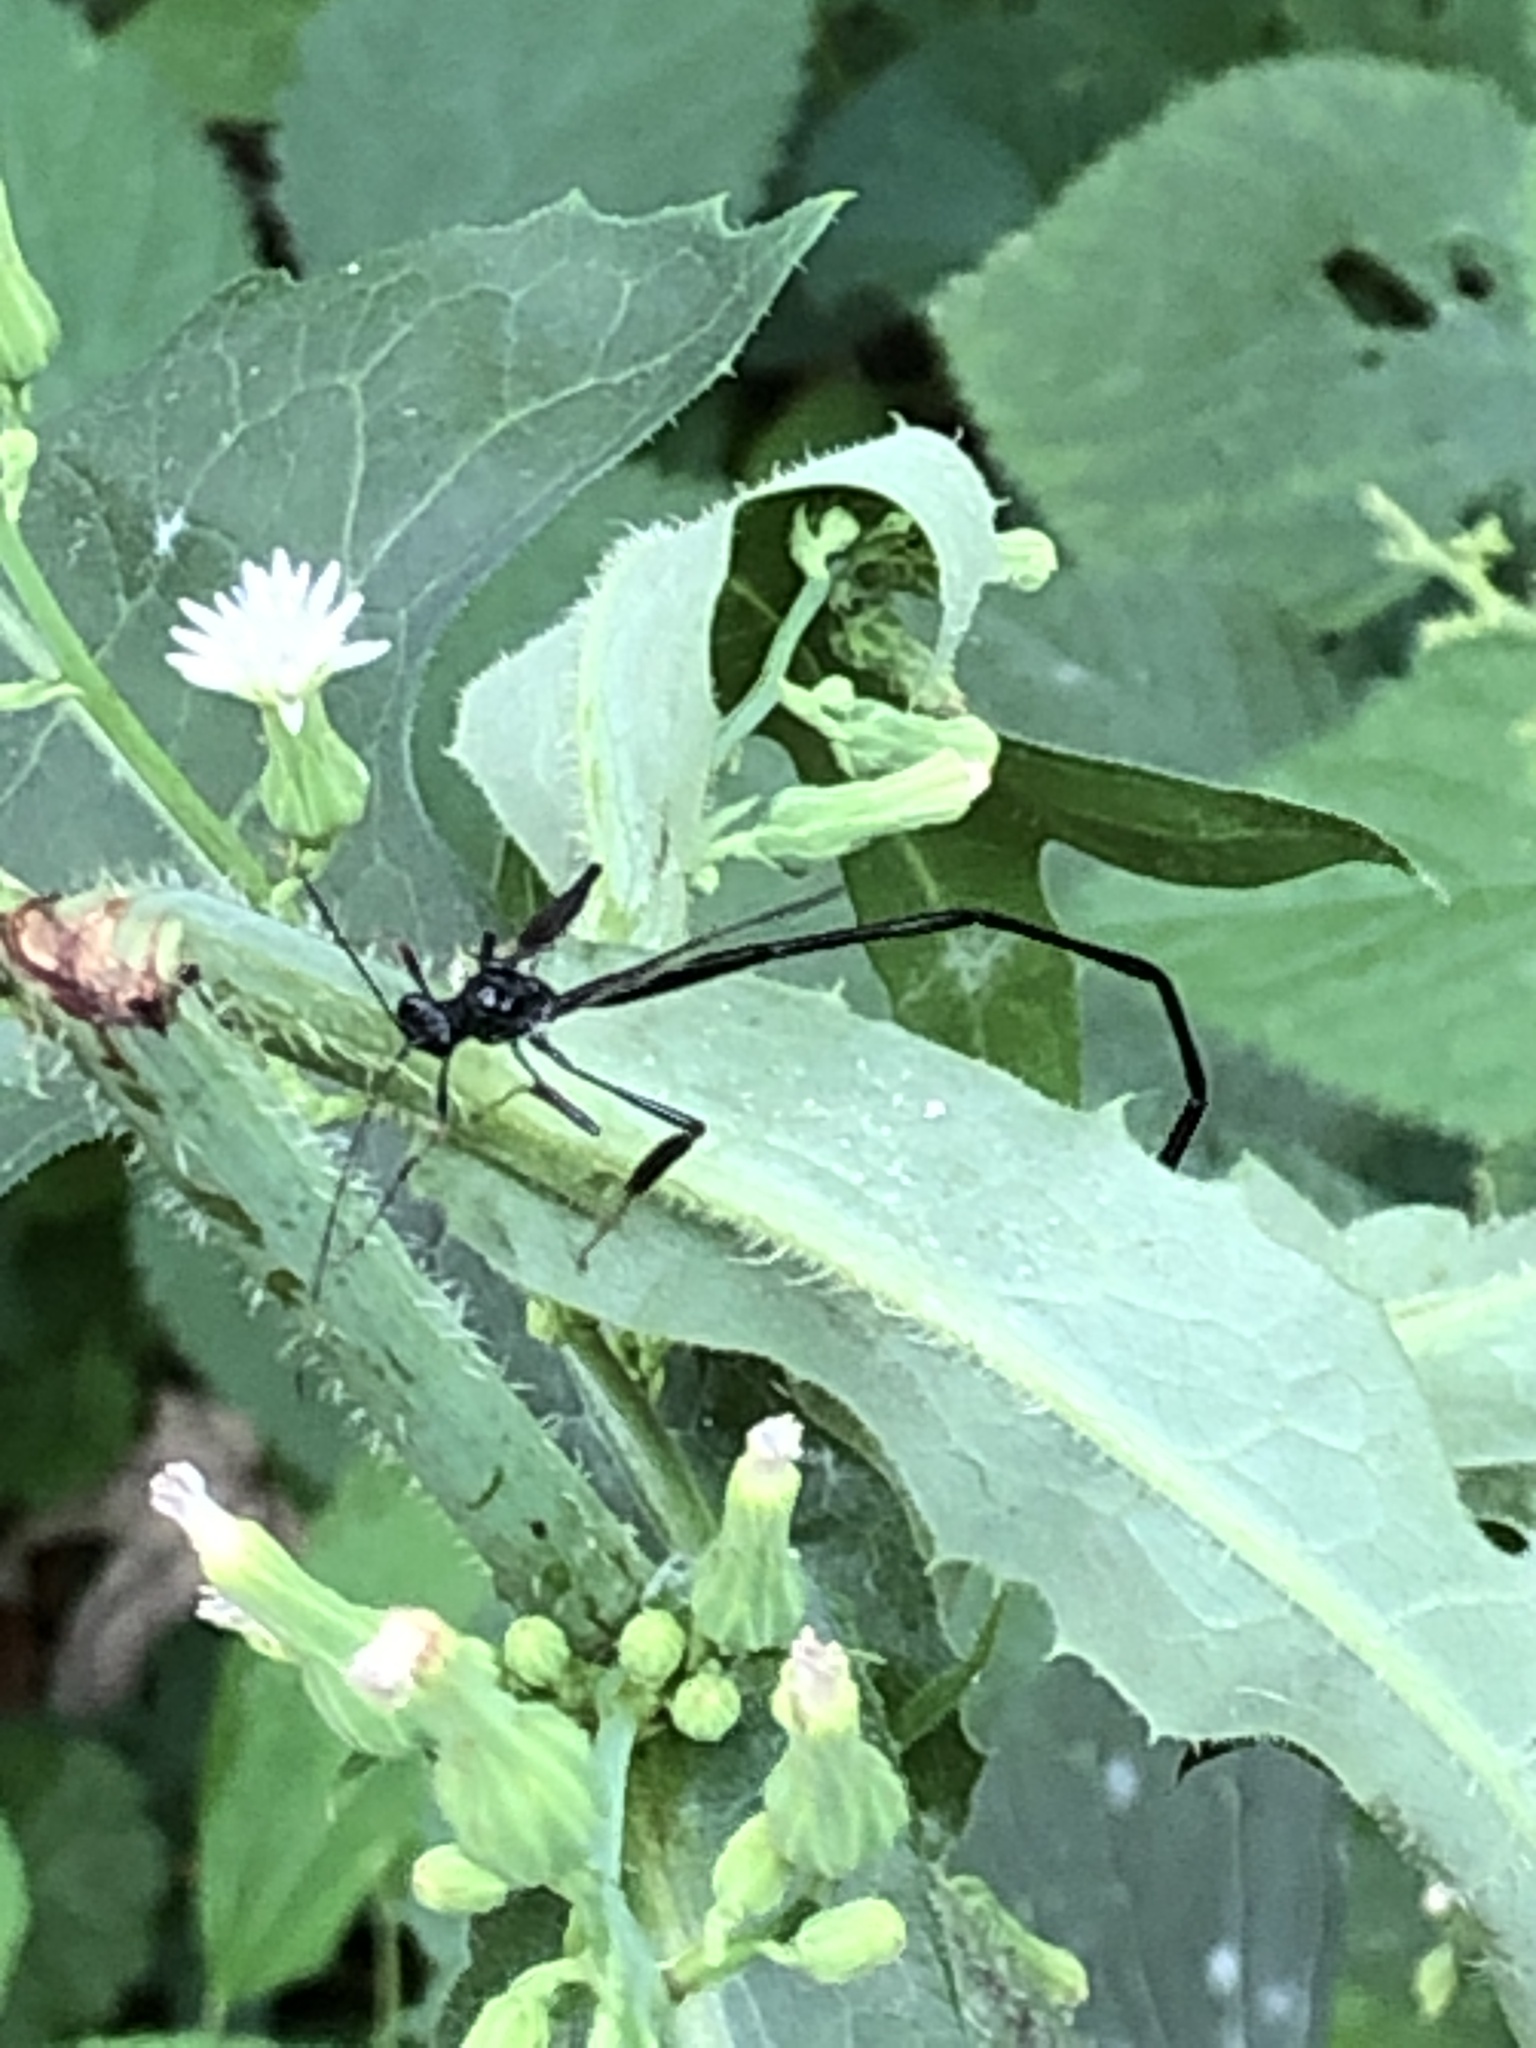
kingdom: Animalia
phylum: Arthropoda
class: Insecta
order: Hymenoptera
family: Pelecinidae
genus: Pelecinus
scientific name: Pelecinus polyturator
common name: American pelecinid wasp
